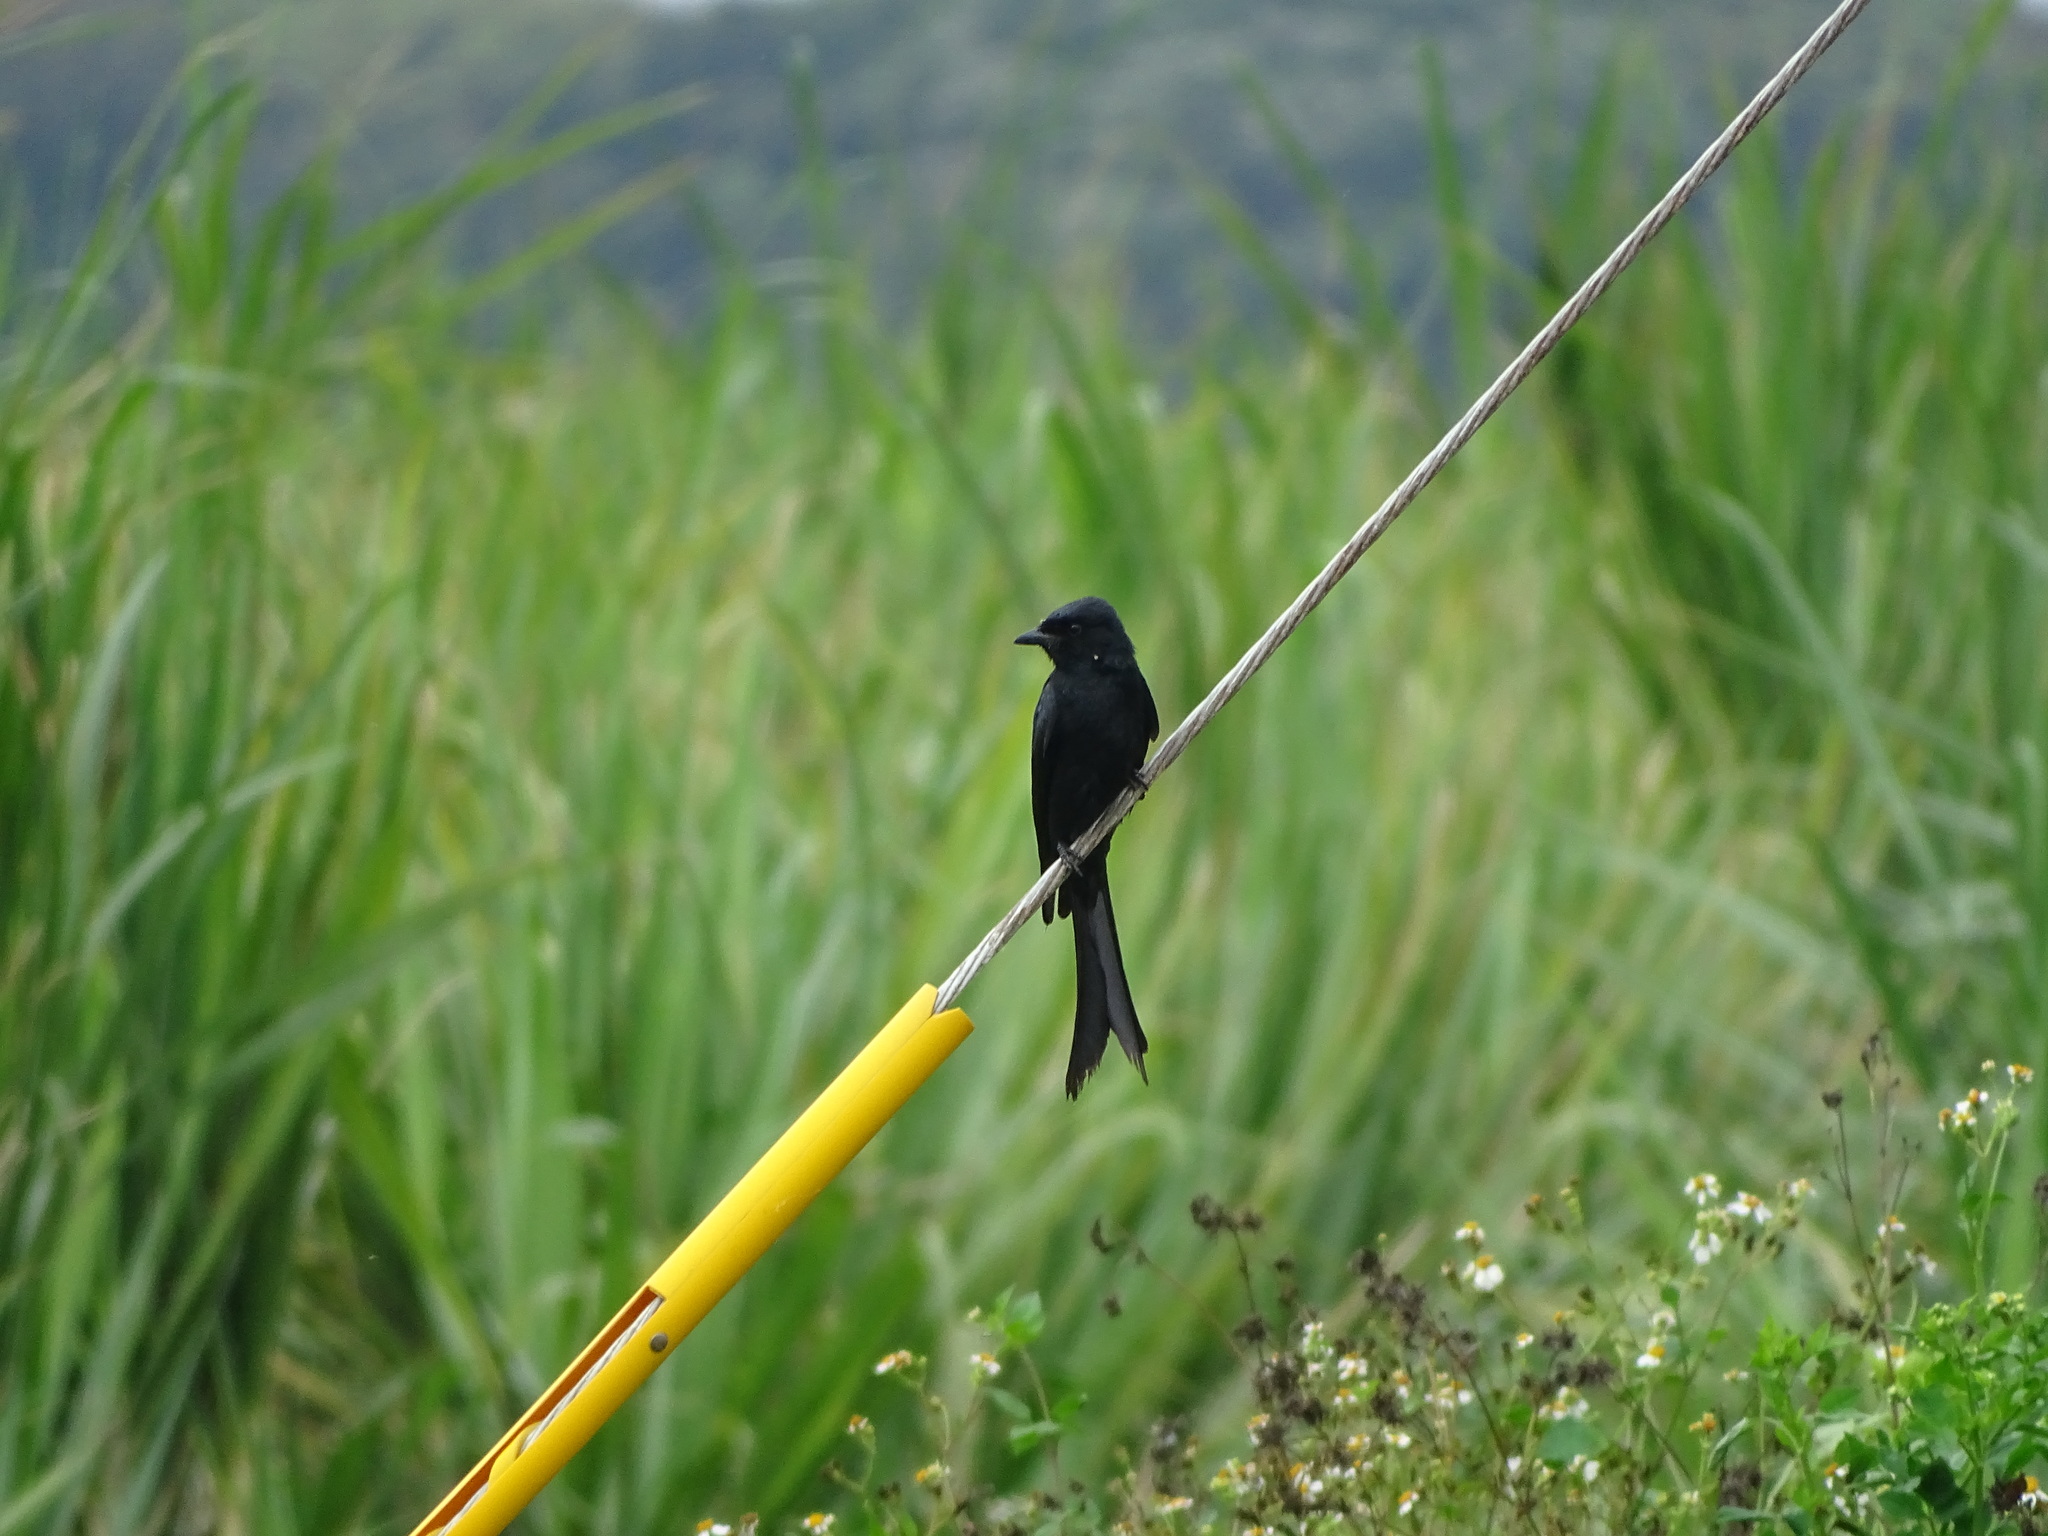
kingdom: Animalia
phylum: Chordata
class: Aves
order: Passeriformes
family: Dicruridae
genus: Dicrurus
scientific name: Dicrurus macrocercus
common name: Black drongo
